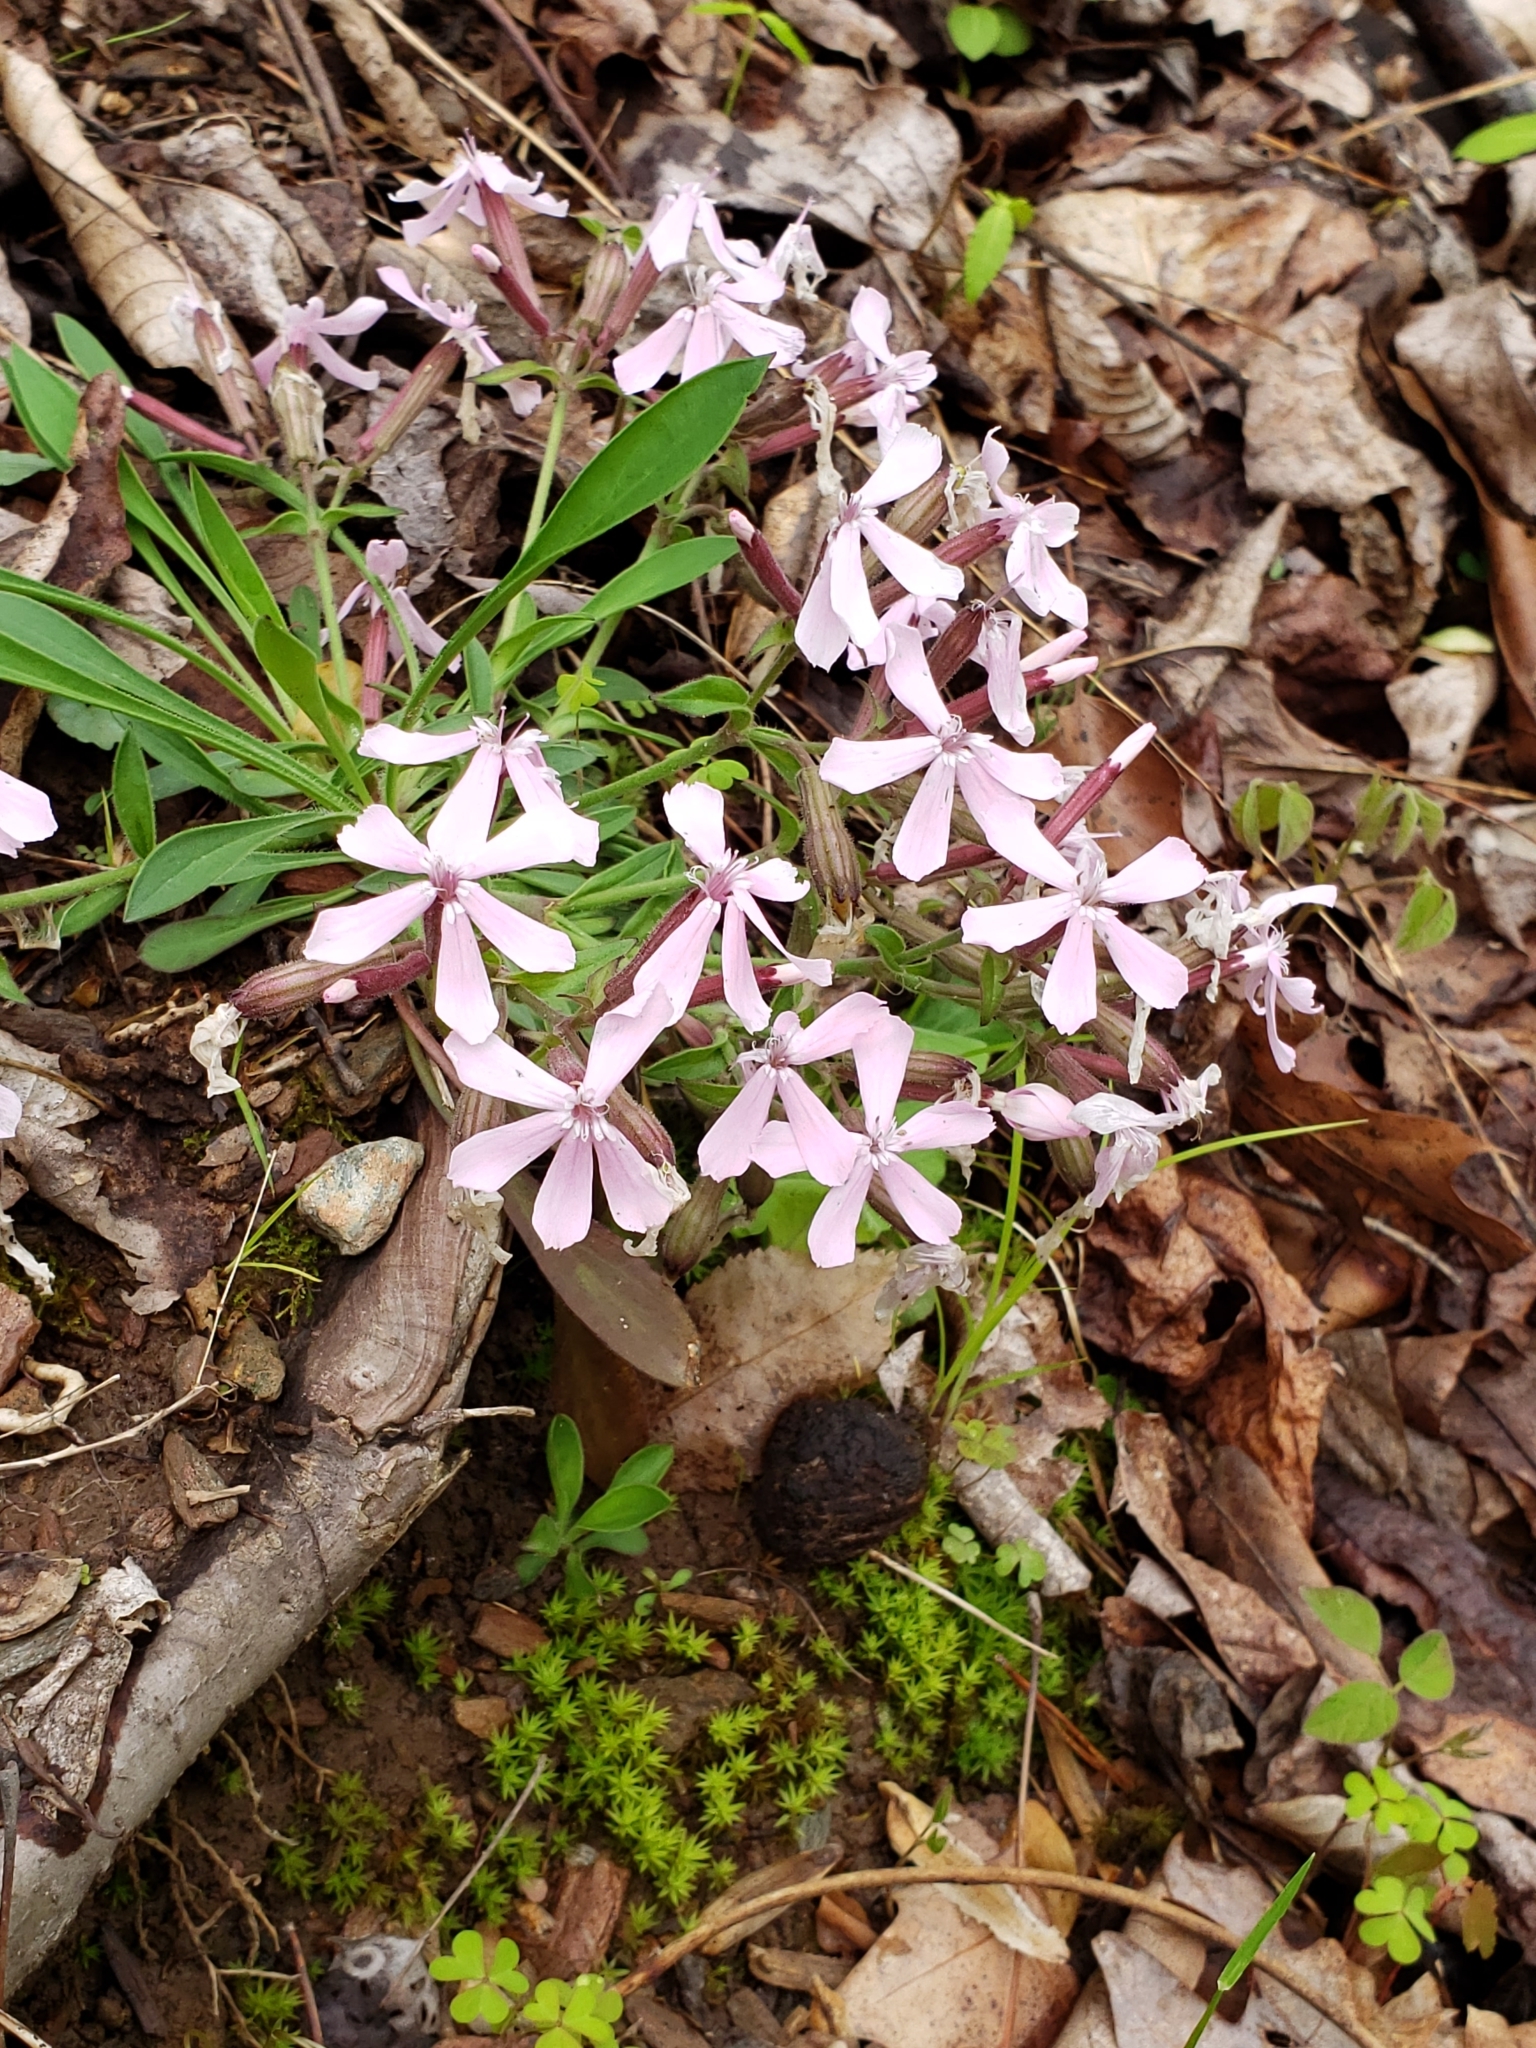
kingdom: Plantae
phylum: Tracheophyta
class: Magnoliopsida
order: Caryophyllales
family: Caryophyllaceae
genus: Silene
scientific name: Silene caroliniana
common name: Sticky catchfly
